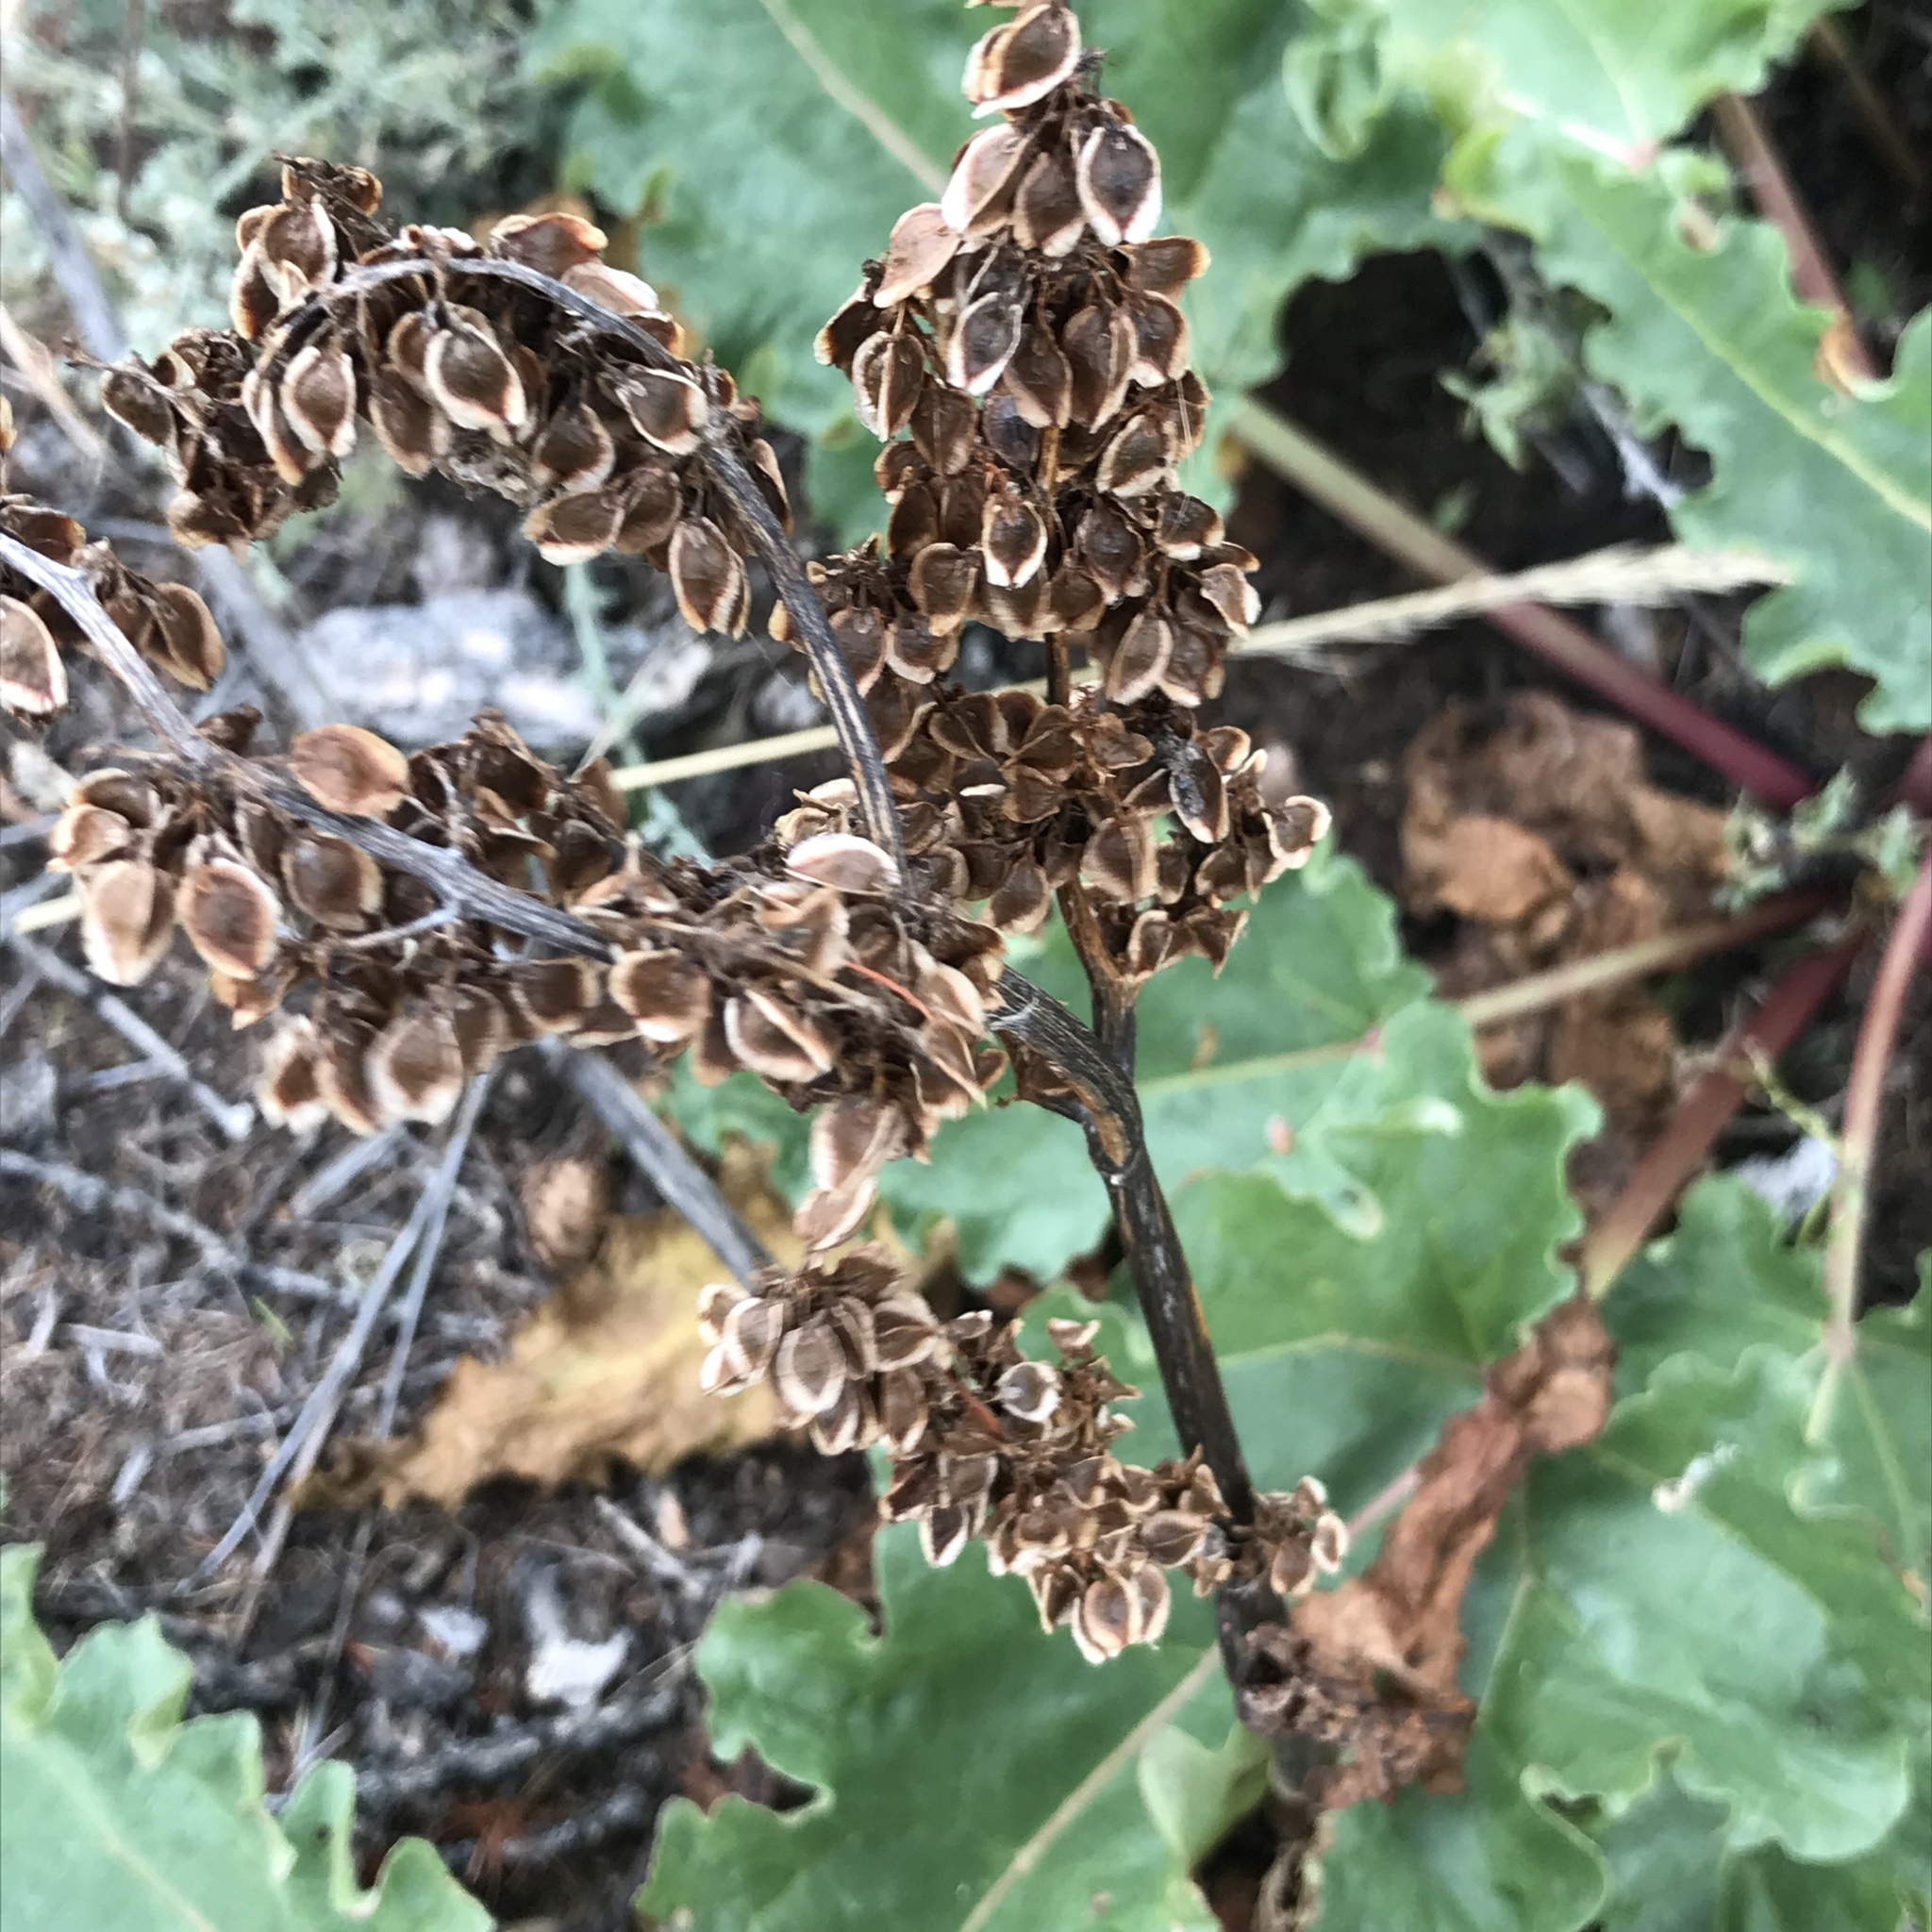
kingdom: Plantae
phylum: Tracheophyta
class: Magnoliopsida
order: Caryophyllales
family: Polygonaceae
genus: Rheum
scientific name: Rheum rhabarbarum
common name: Garden rhubarb
